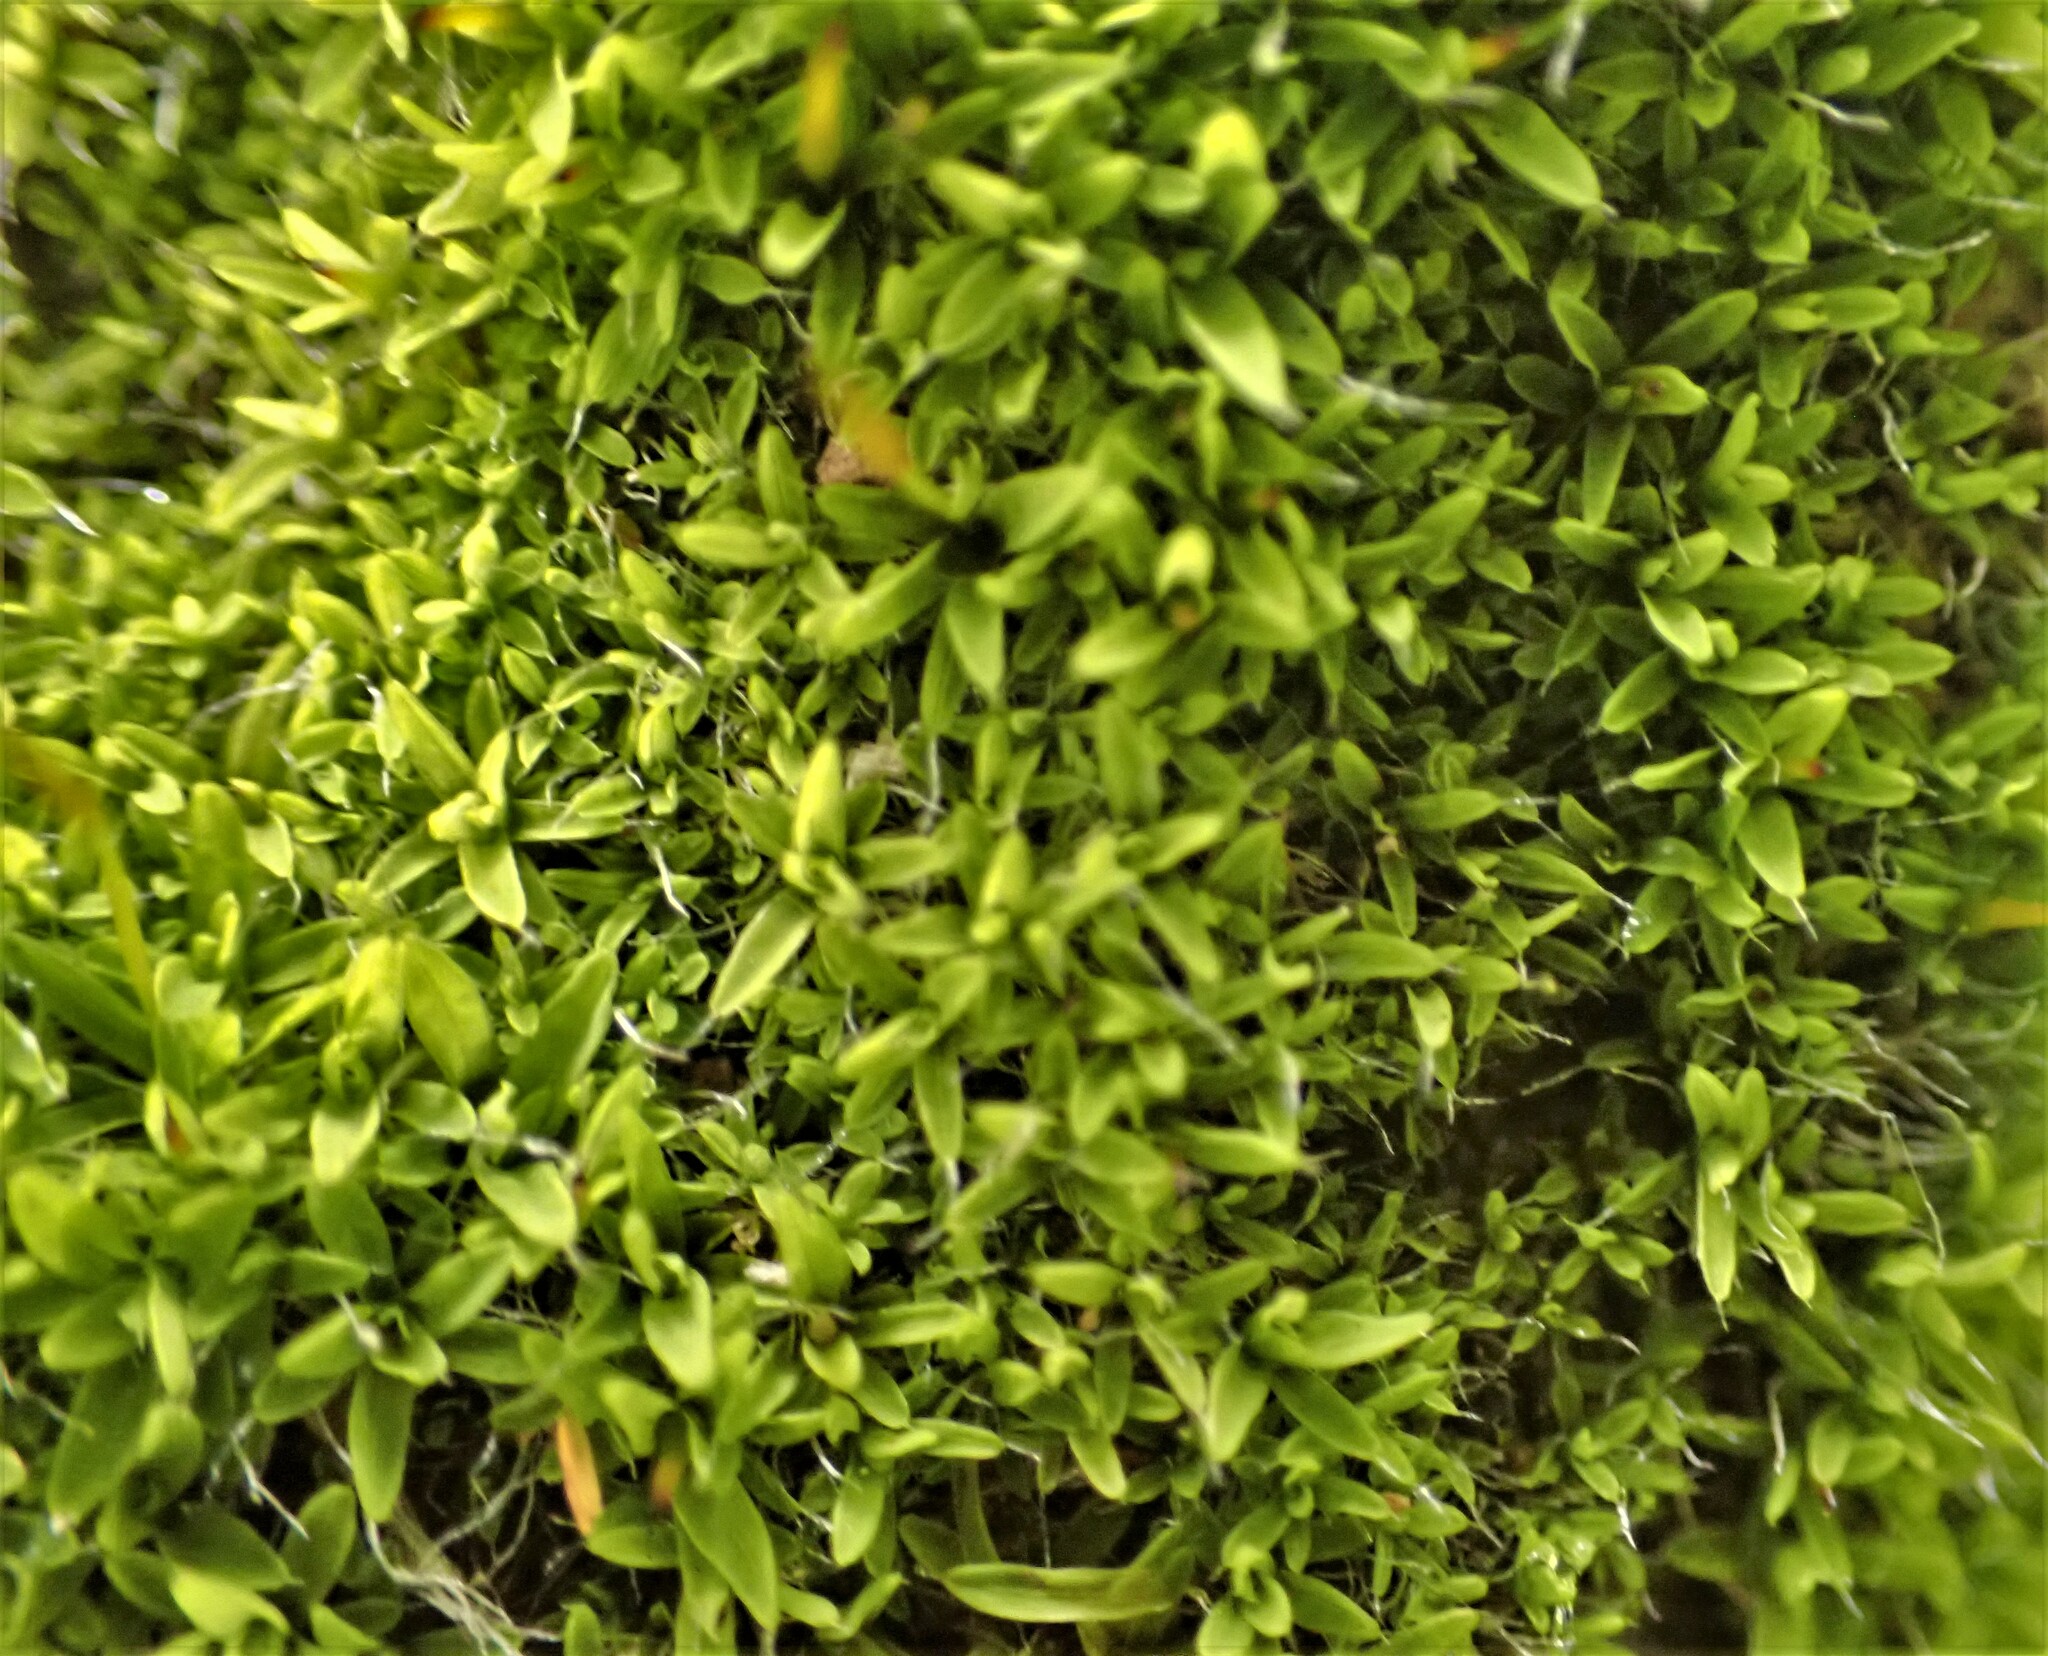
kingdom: Plantae
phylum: Bryophyta
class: Bryopsida
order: Pottiales
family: Pottiaceae
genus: Tortula
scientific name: Tortula muralis
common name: Wall screw-moss
